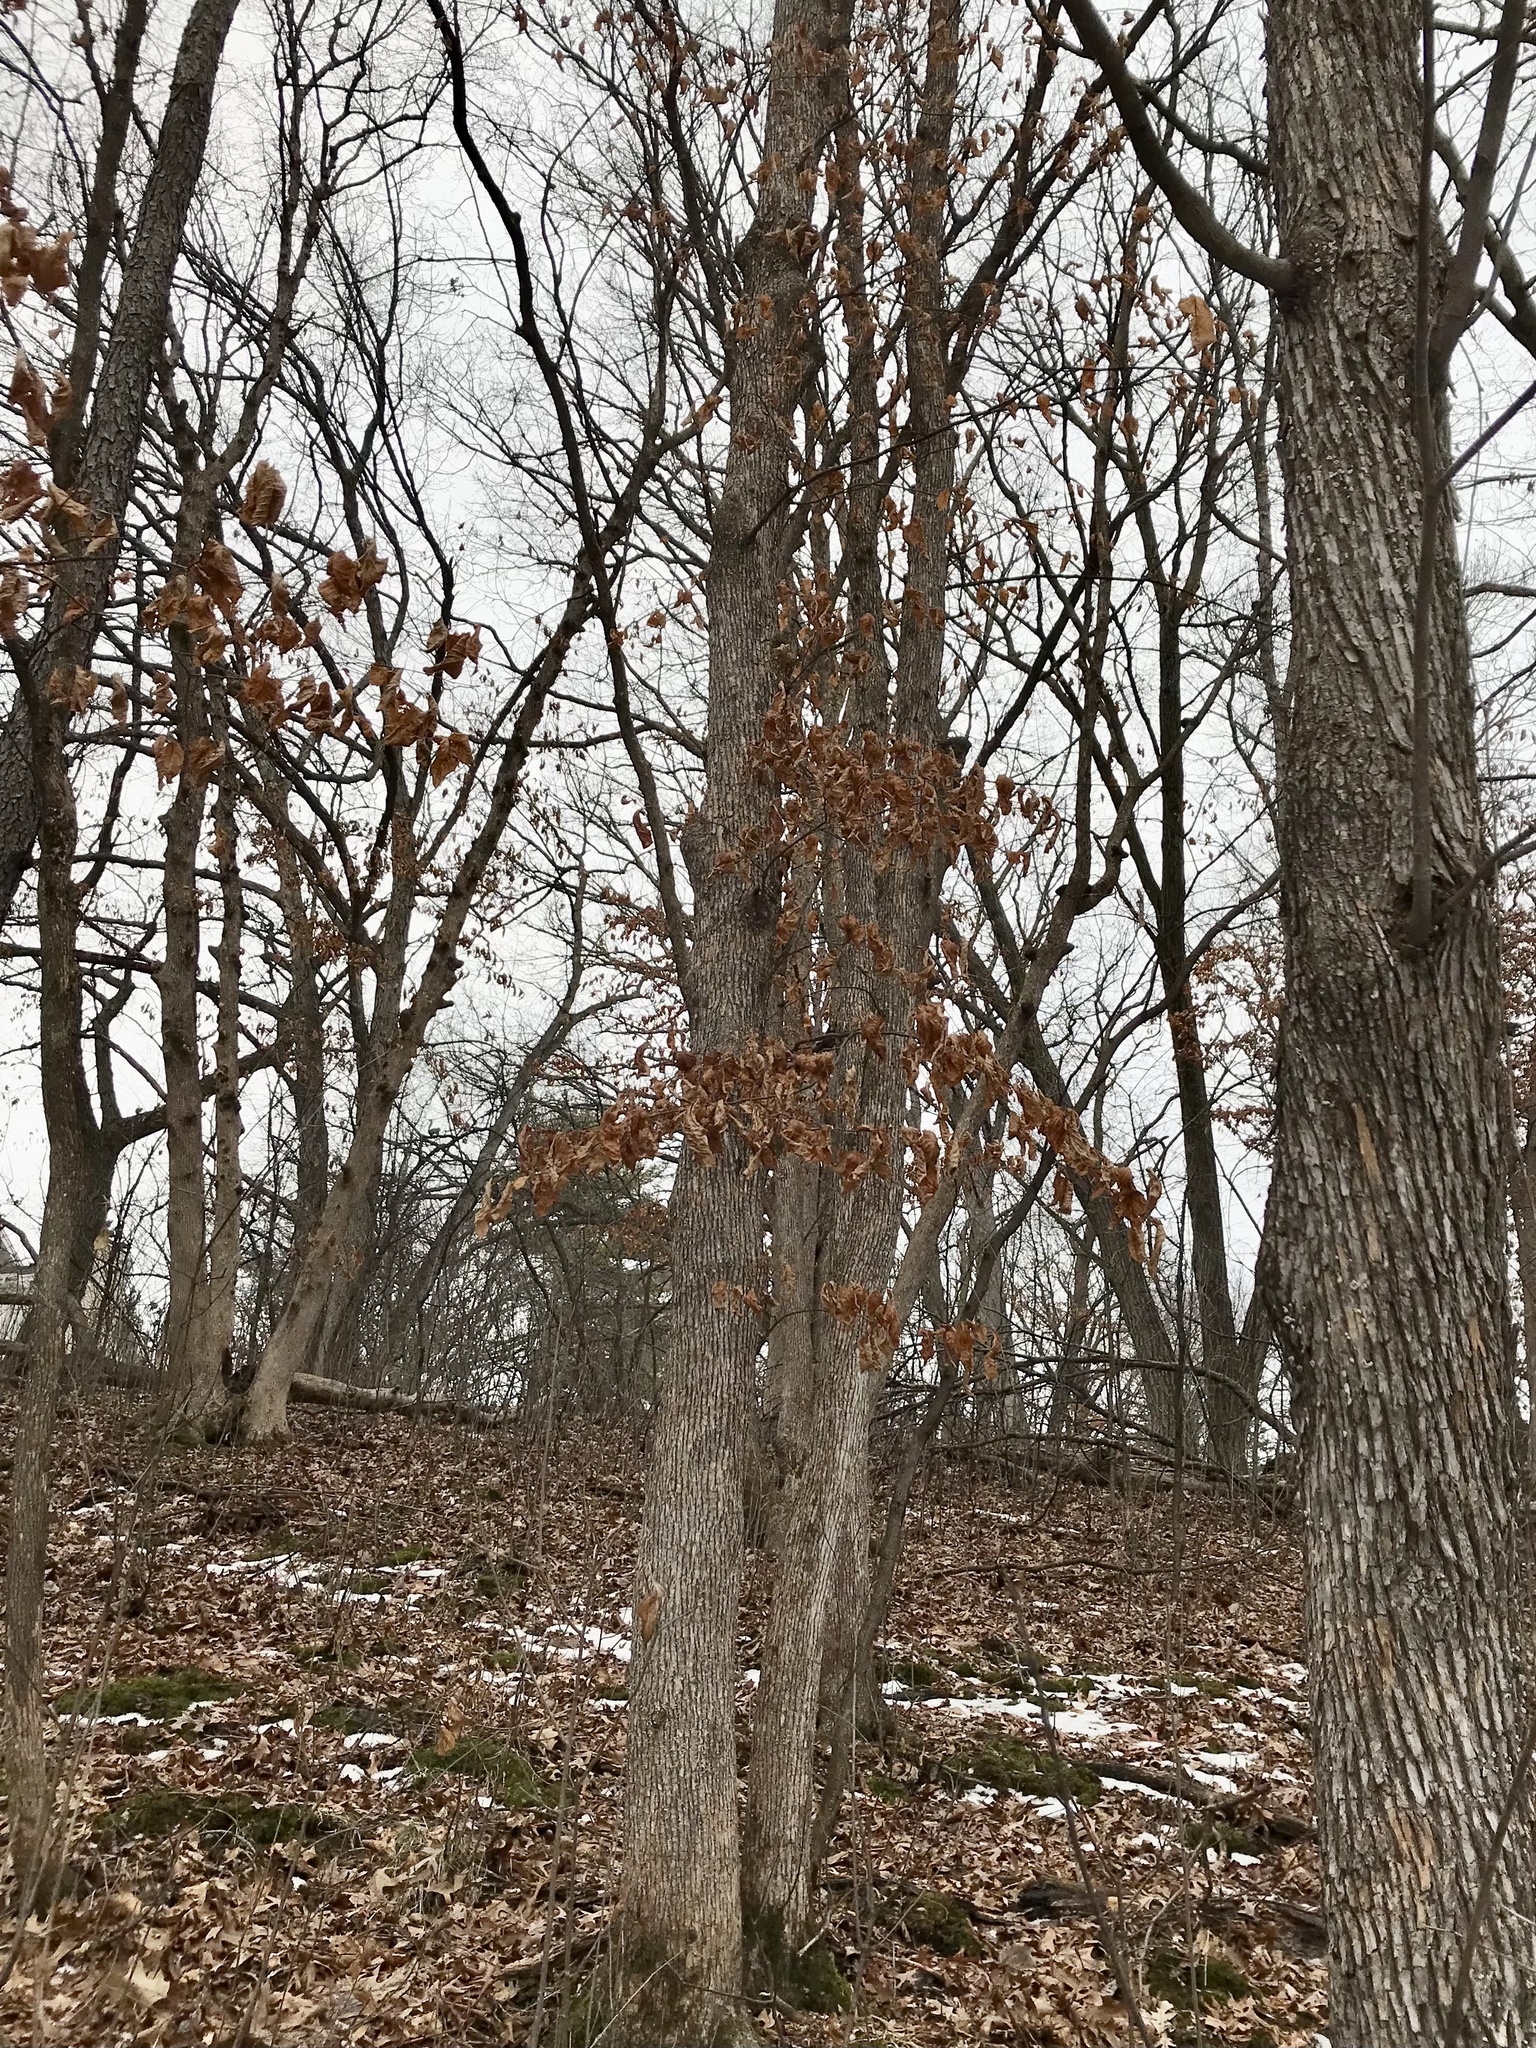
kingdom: Plantae
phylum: Tracheophyta
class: Magnoliopsida
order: Fagales
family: Betulaceae
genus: Ostrya
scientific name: Ostrya virginiana
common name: Ironwood
